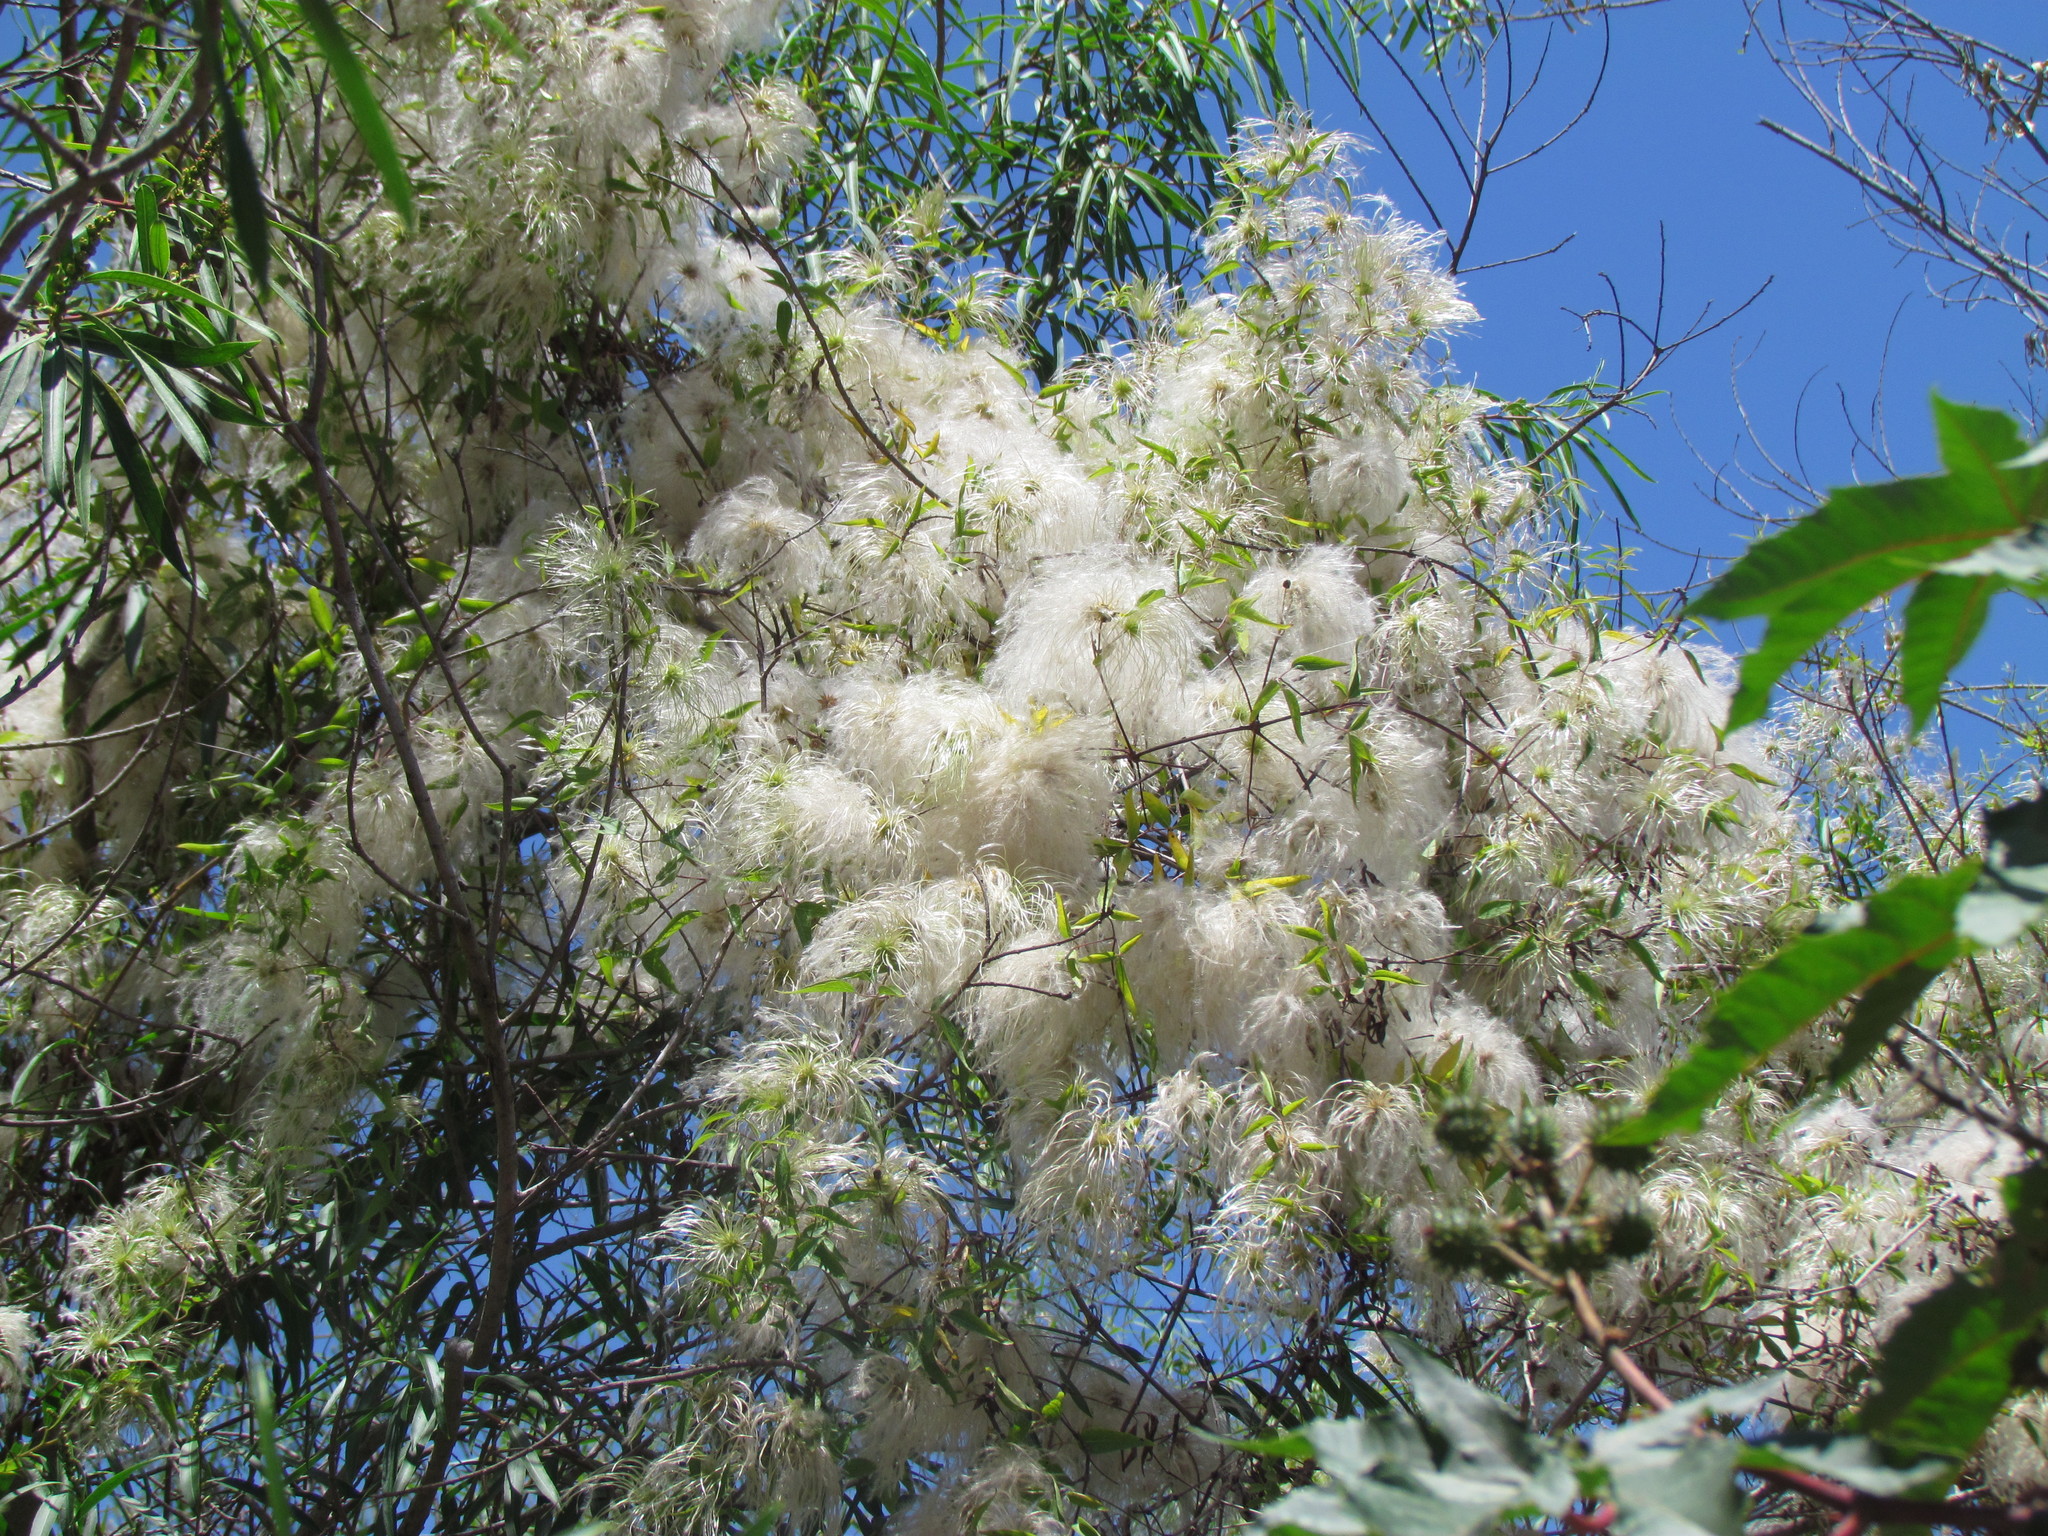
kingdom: Plantae
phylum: Tracheophyta
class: Magnoliopsida
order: Ranunculales
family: Ranunculaceae
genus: Clematis
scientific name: Clematis montevidensis
